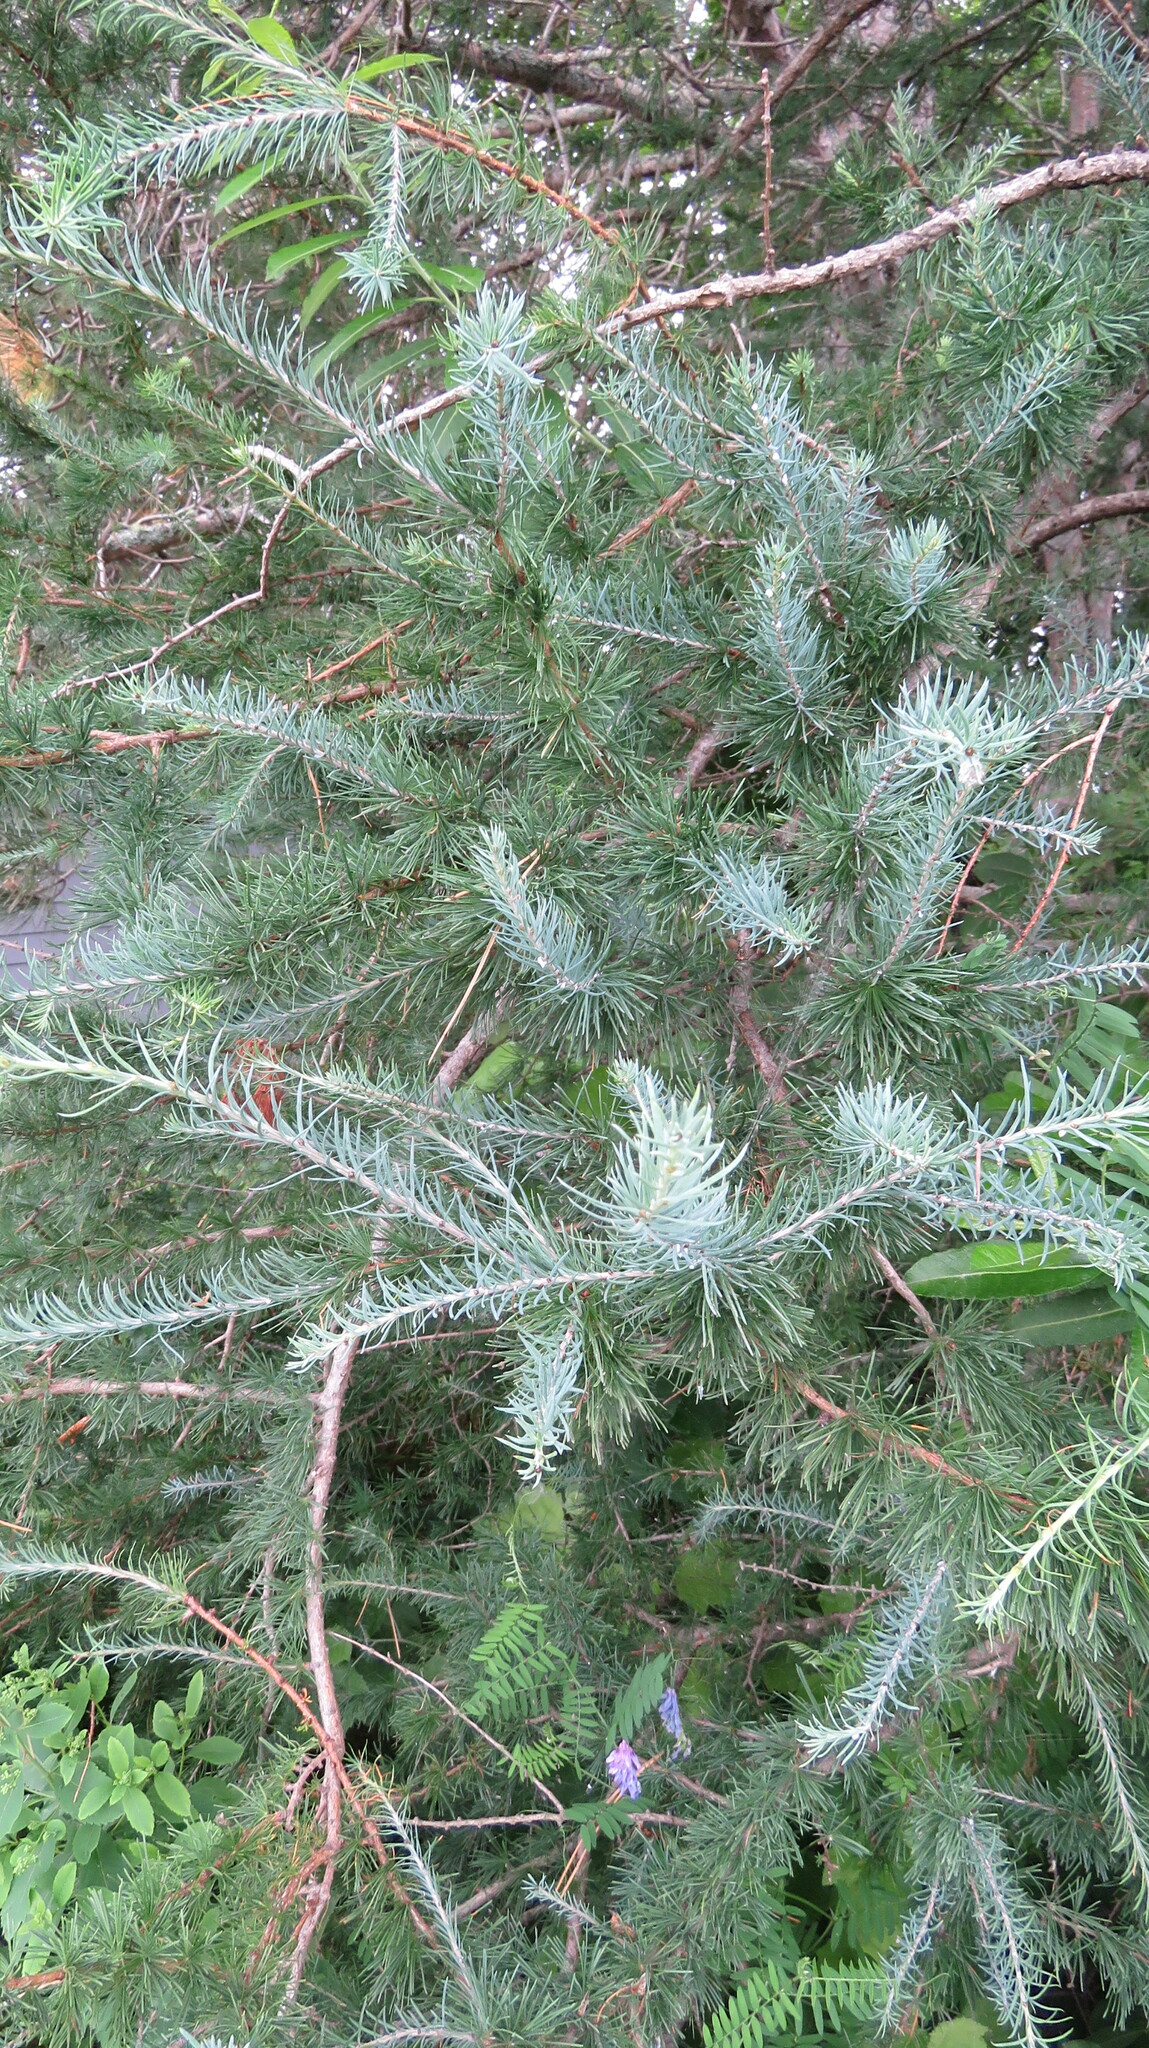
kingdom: Plantae
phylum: Tracheophyta
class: Pinopsida
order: Pinales
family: Pinaceae
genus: Larix
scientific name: Larix laricina
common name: American larch
